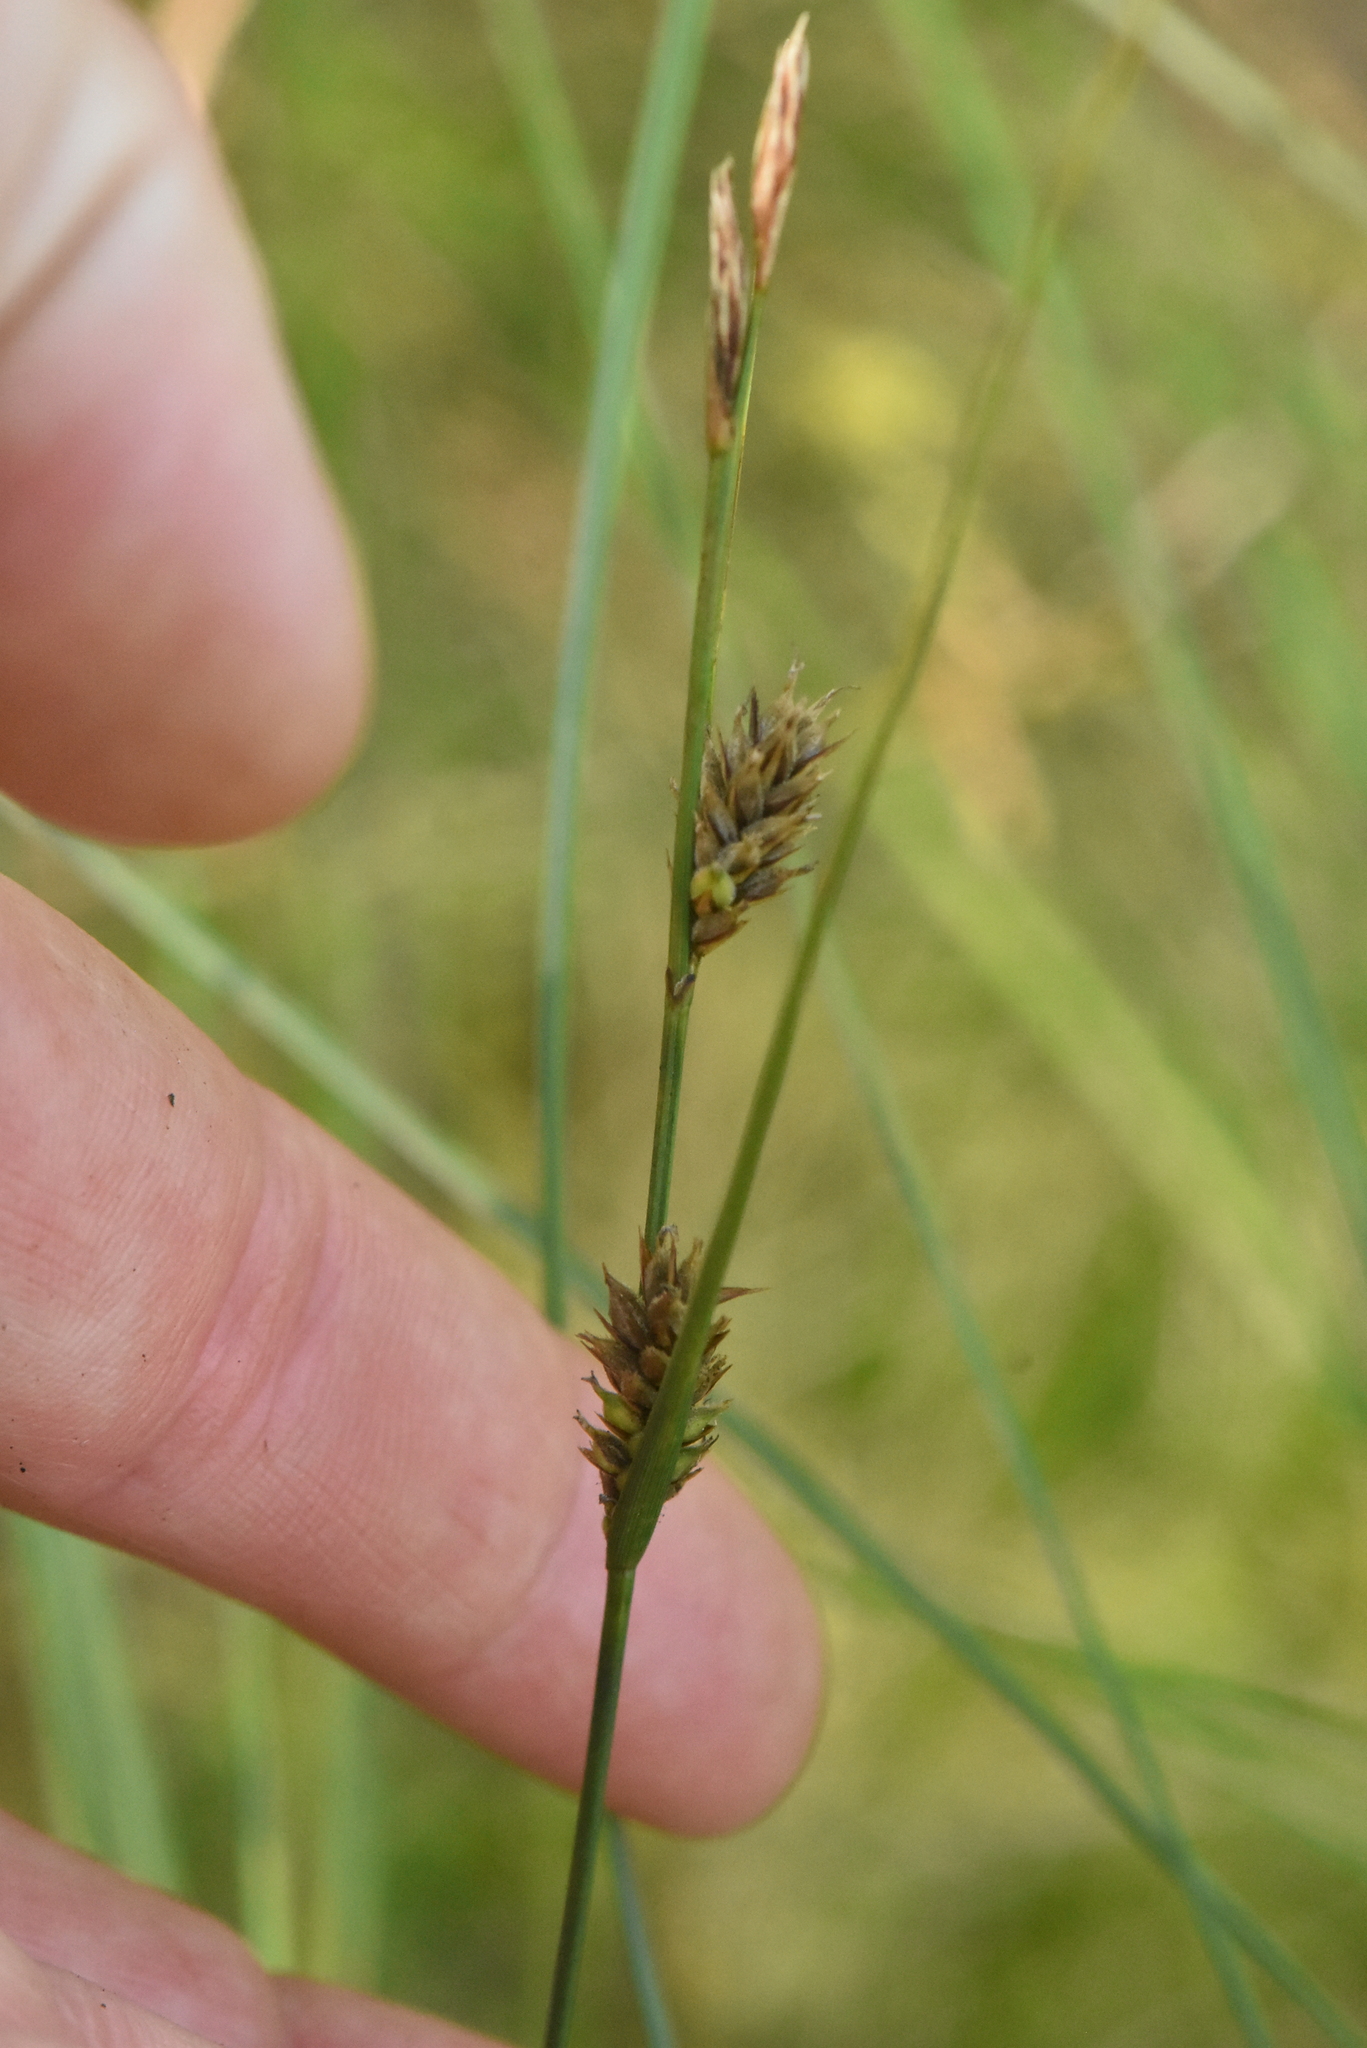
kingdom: Plantae
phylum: Tracheophyta
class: Liliopsida
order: Poales
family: Cyperaceae
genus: Carex
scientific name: Carex lasiocarpa
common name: Slender sedge
